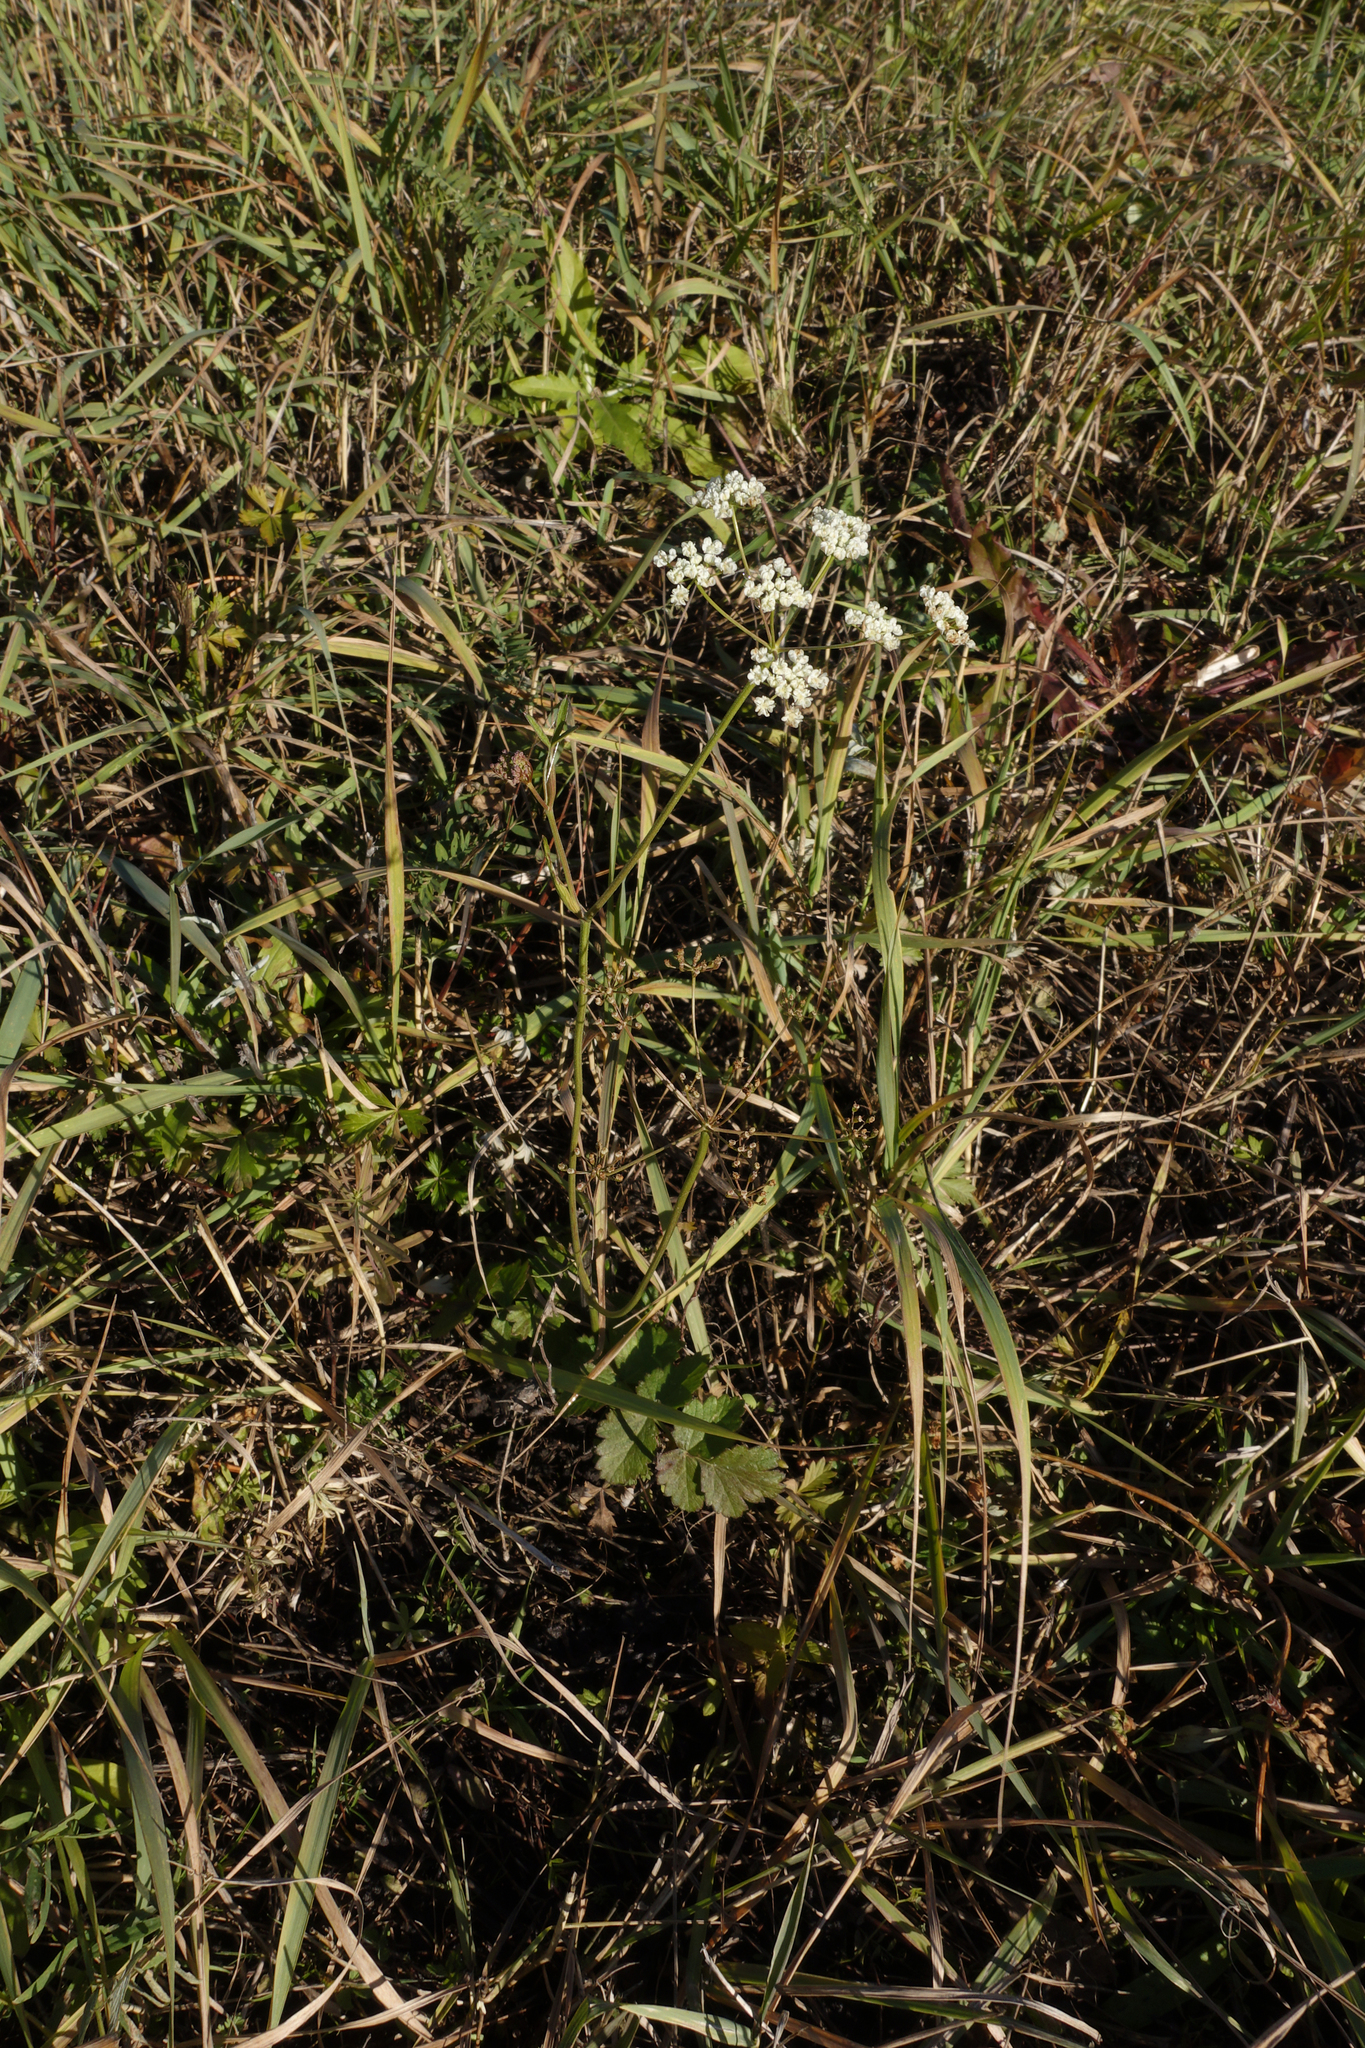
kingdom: Plantae
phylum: Tracheophyta
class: Magnoliopsida
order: Apiales
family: Apiaceae
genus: Pimpinella
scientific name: Pimpinella saxifraga
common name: Burnet-saxifrage
